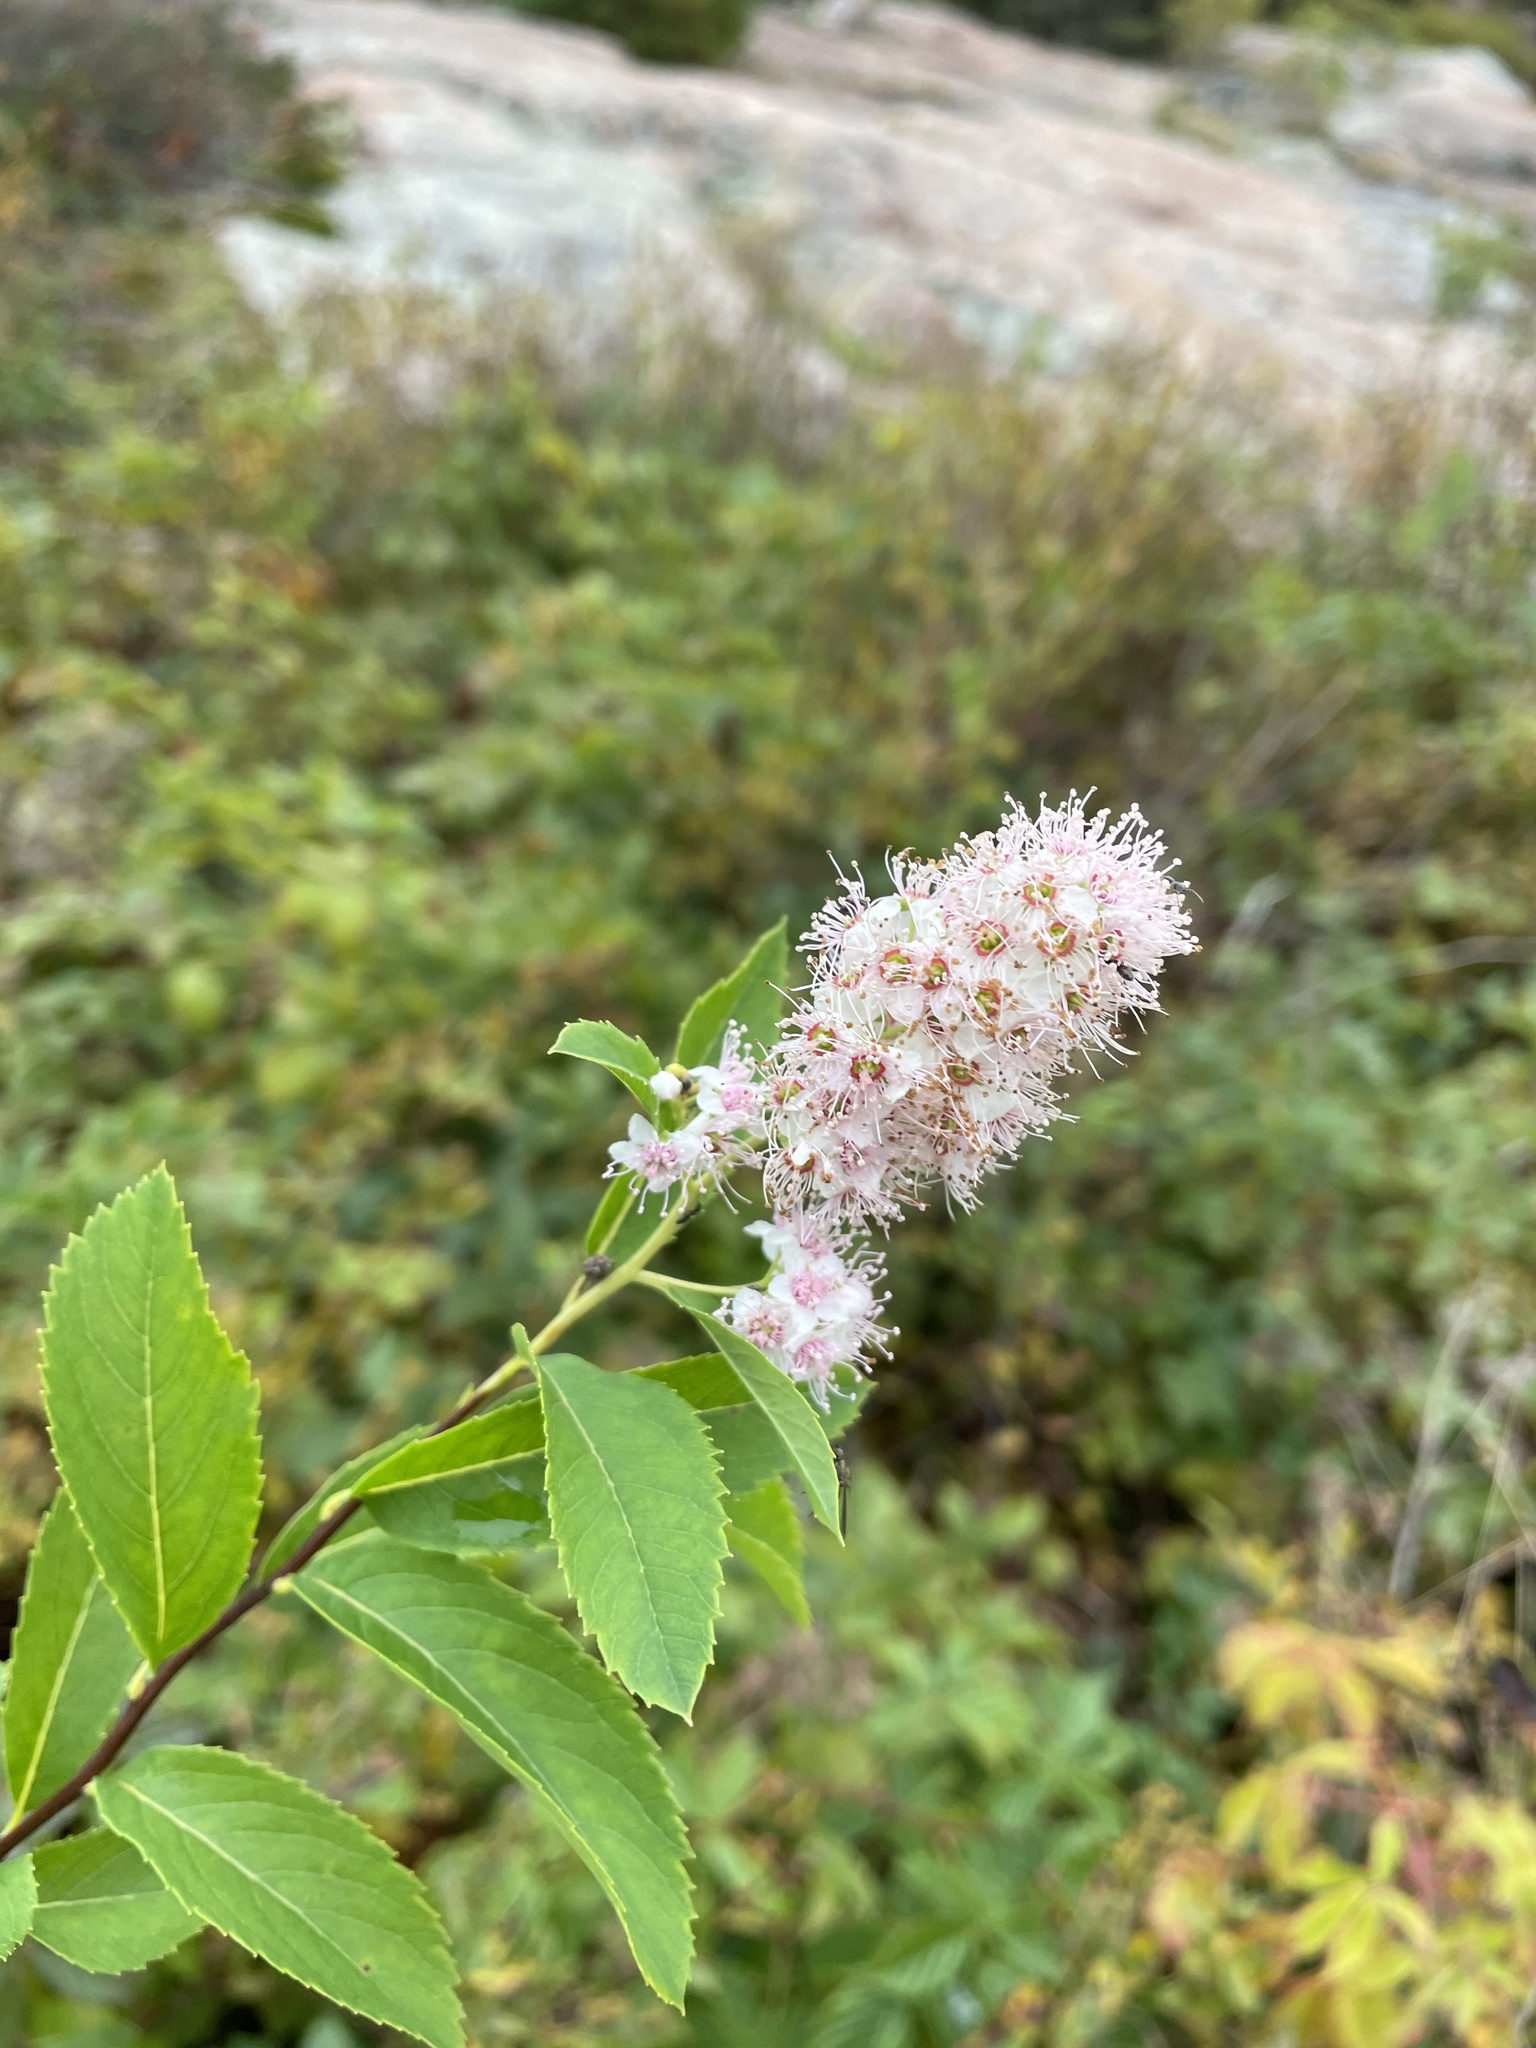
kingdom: Plantae
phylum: Tracheophyta
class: Magnoliopsida
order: Rosales
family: Rosaceae
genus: Spiraea
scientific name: Spiraea alba
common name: Pale bridewort
